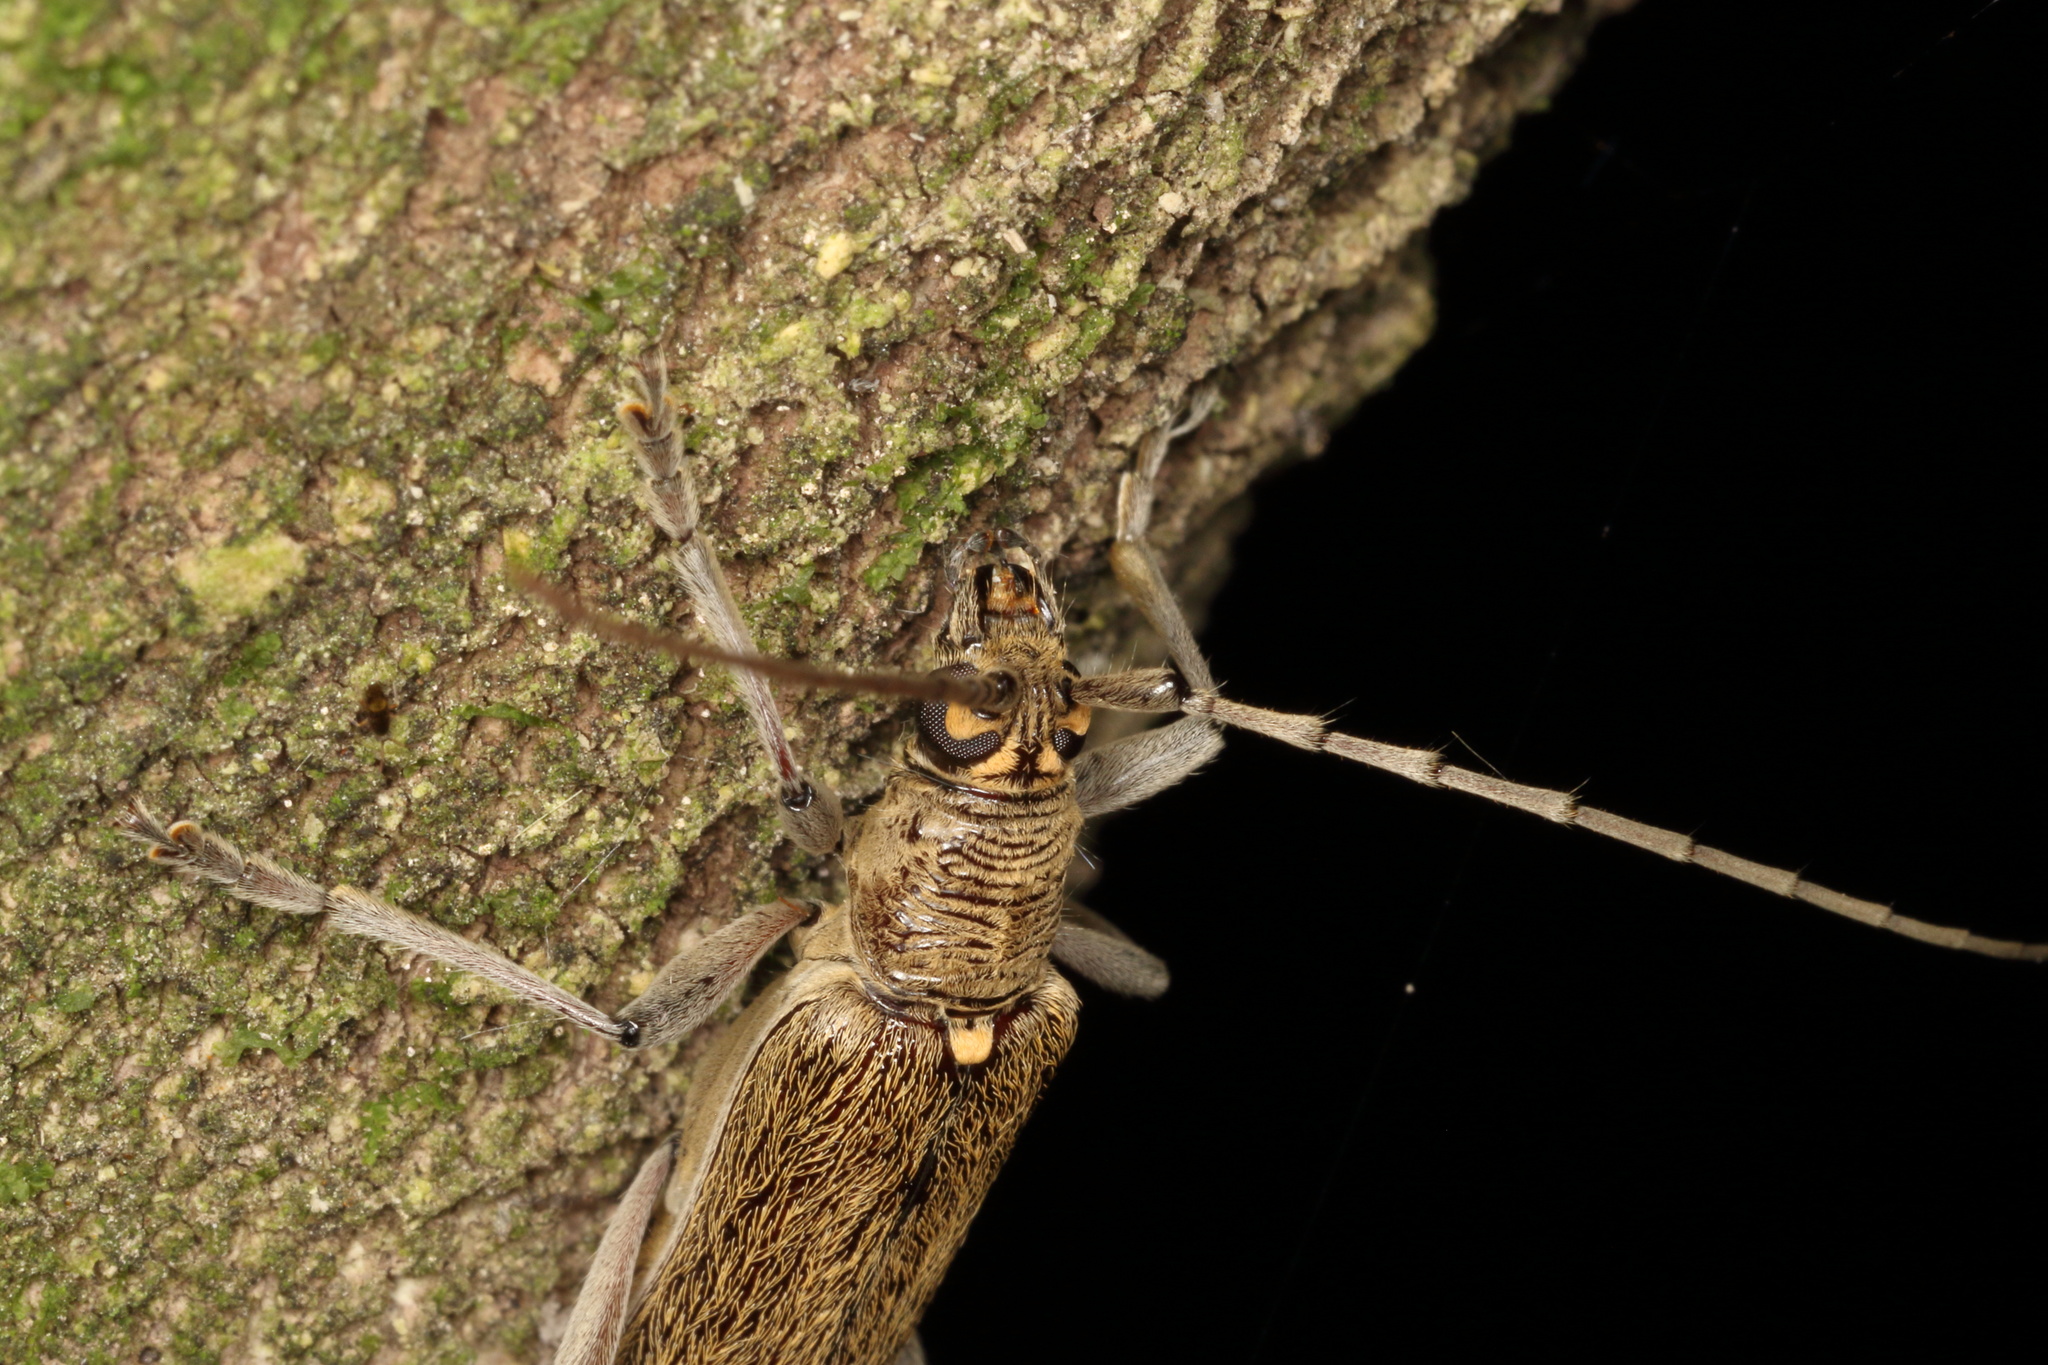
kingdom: Animalia
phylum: Arthropoda
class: Insecta
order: Coleoptera
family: Cerambycidae
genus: Oemona
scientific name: Oemona hirta
